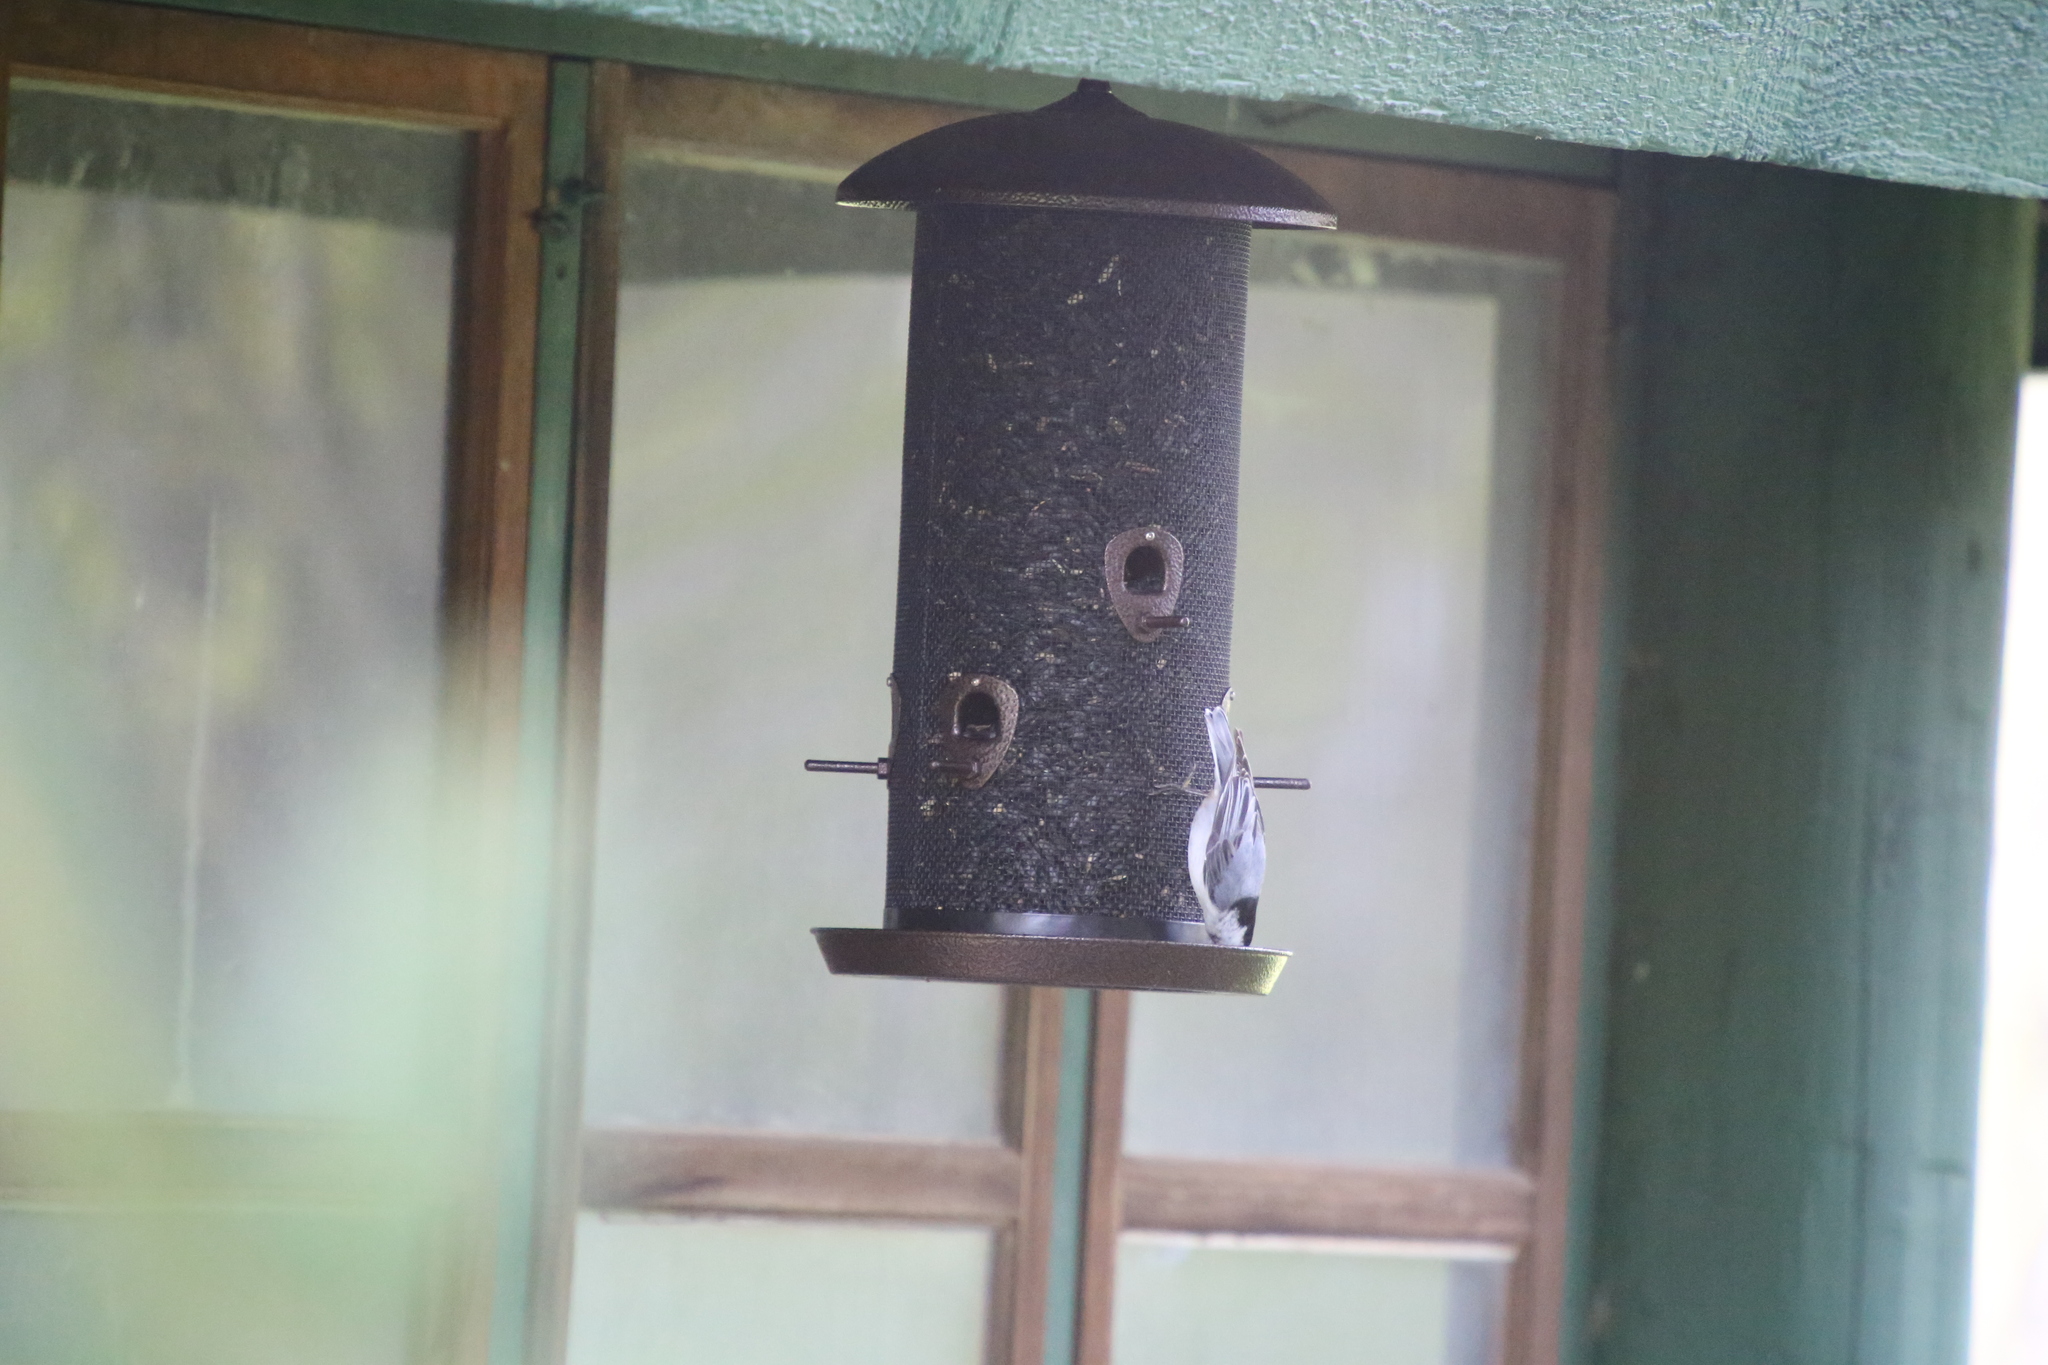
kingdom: Animalia
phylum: Chordata
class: Aves
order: Passeriformes
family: Sittidae
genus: Sitta
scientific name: Sitta carolinensis
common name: White-breasted nuthatch
